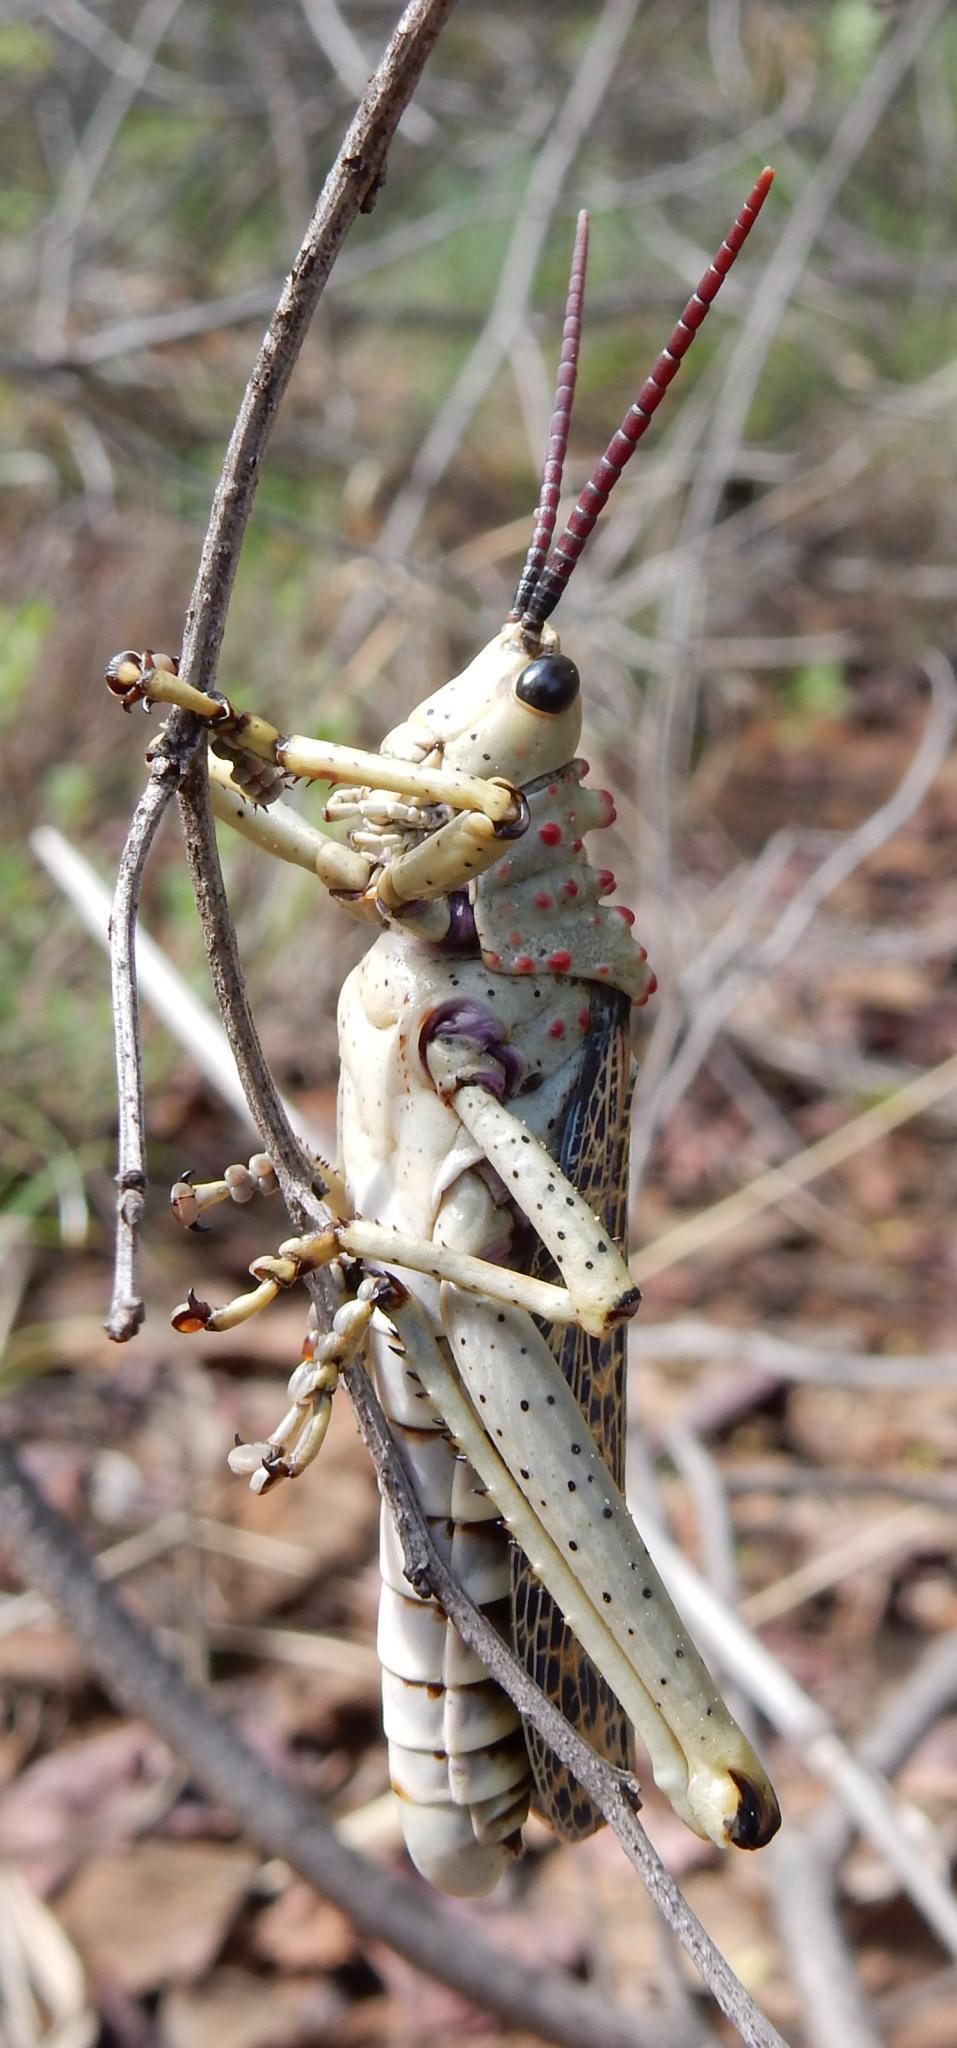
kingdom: Animalia
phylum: Arthropoda
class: Insecta
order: Orthoptera
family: Pyrgomorphidae
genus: Phymateus
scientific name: Phymateus baccatus
